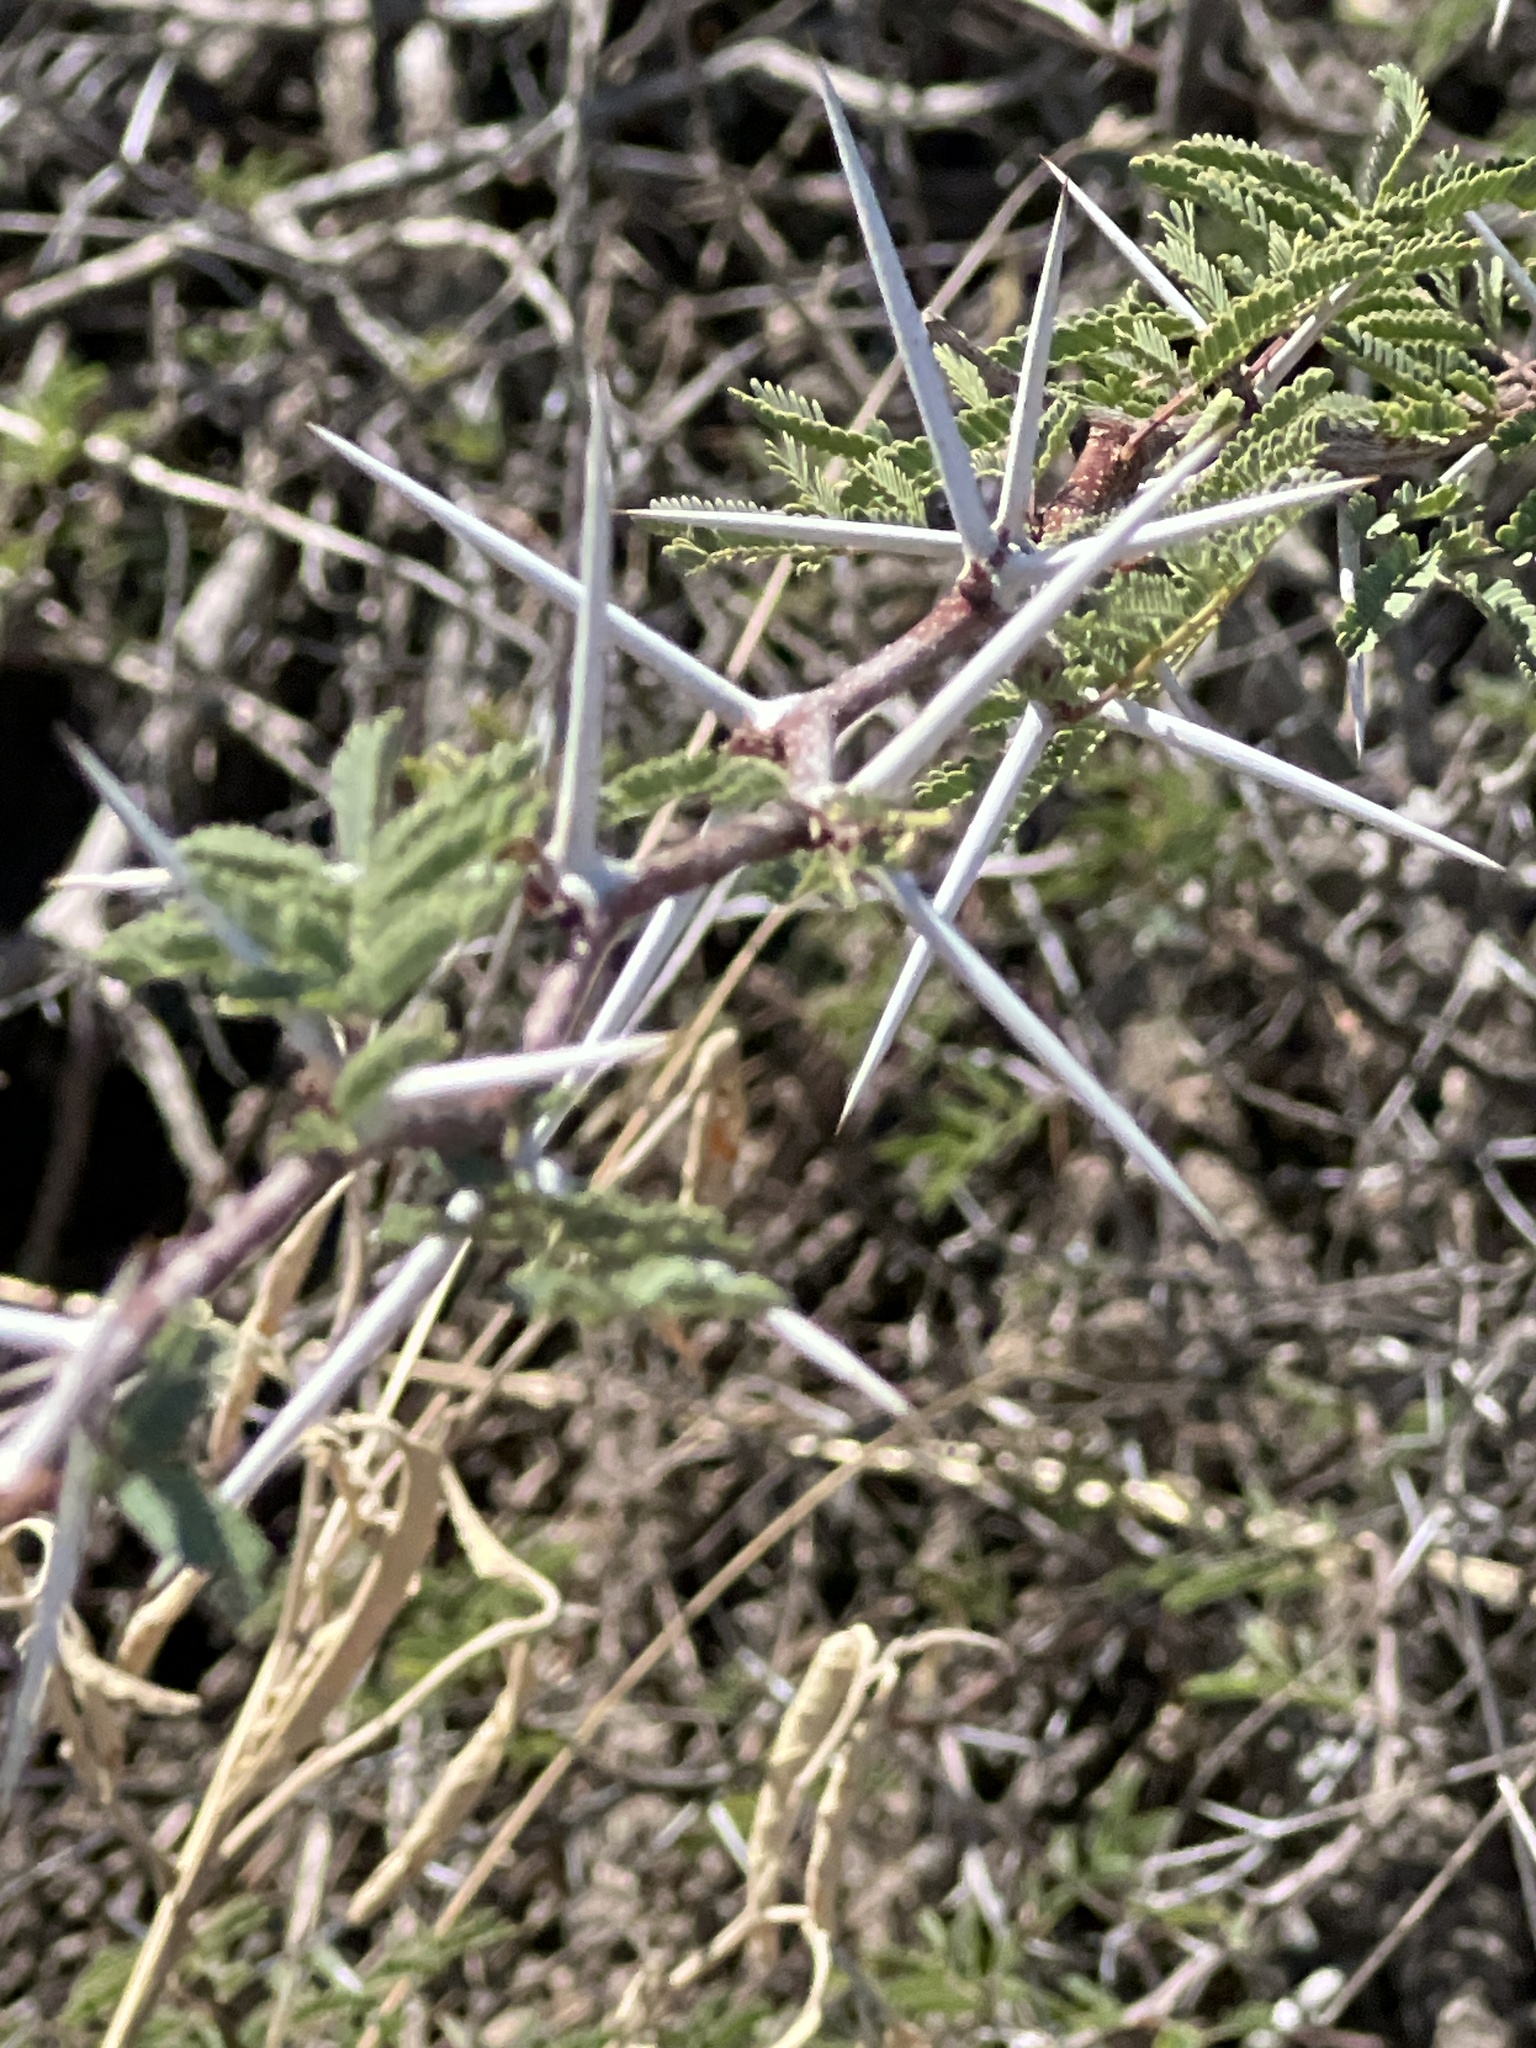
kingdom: Plantae
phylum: Tracheophyta
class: Magnoliopsida
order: Fabales
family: Fabaceae
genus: Vachellia
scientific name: Vachellia farnesiana
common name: Sweet acacia
